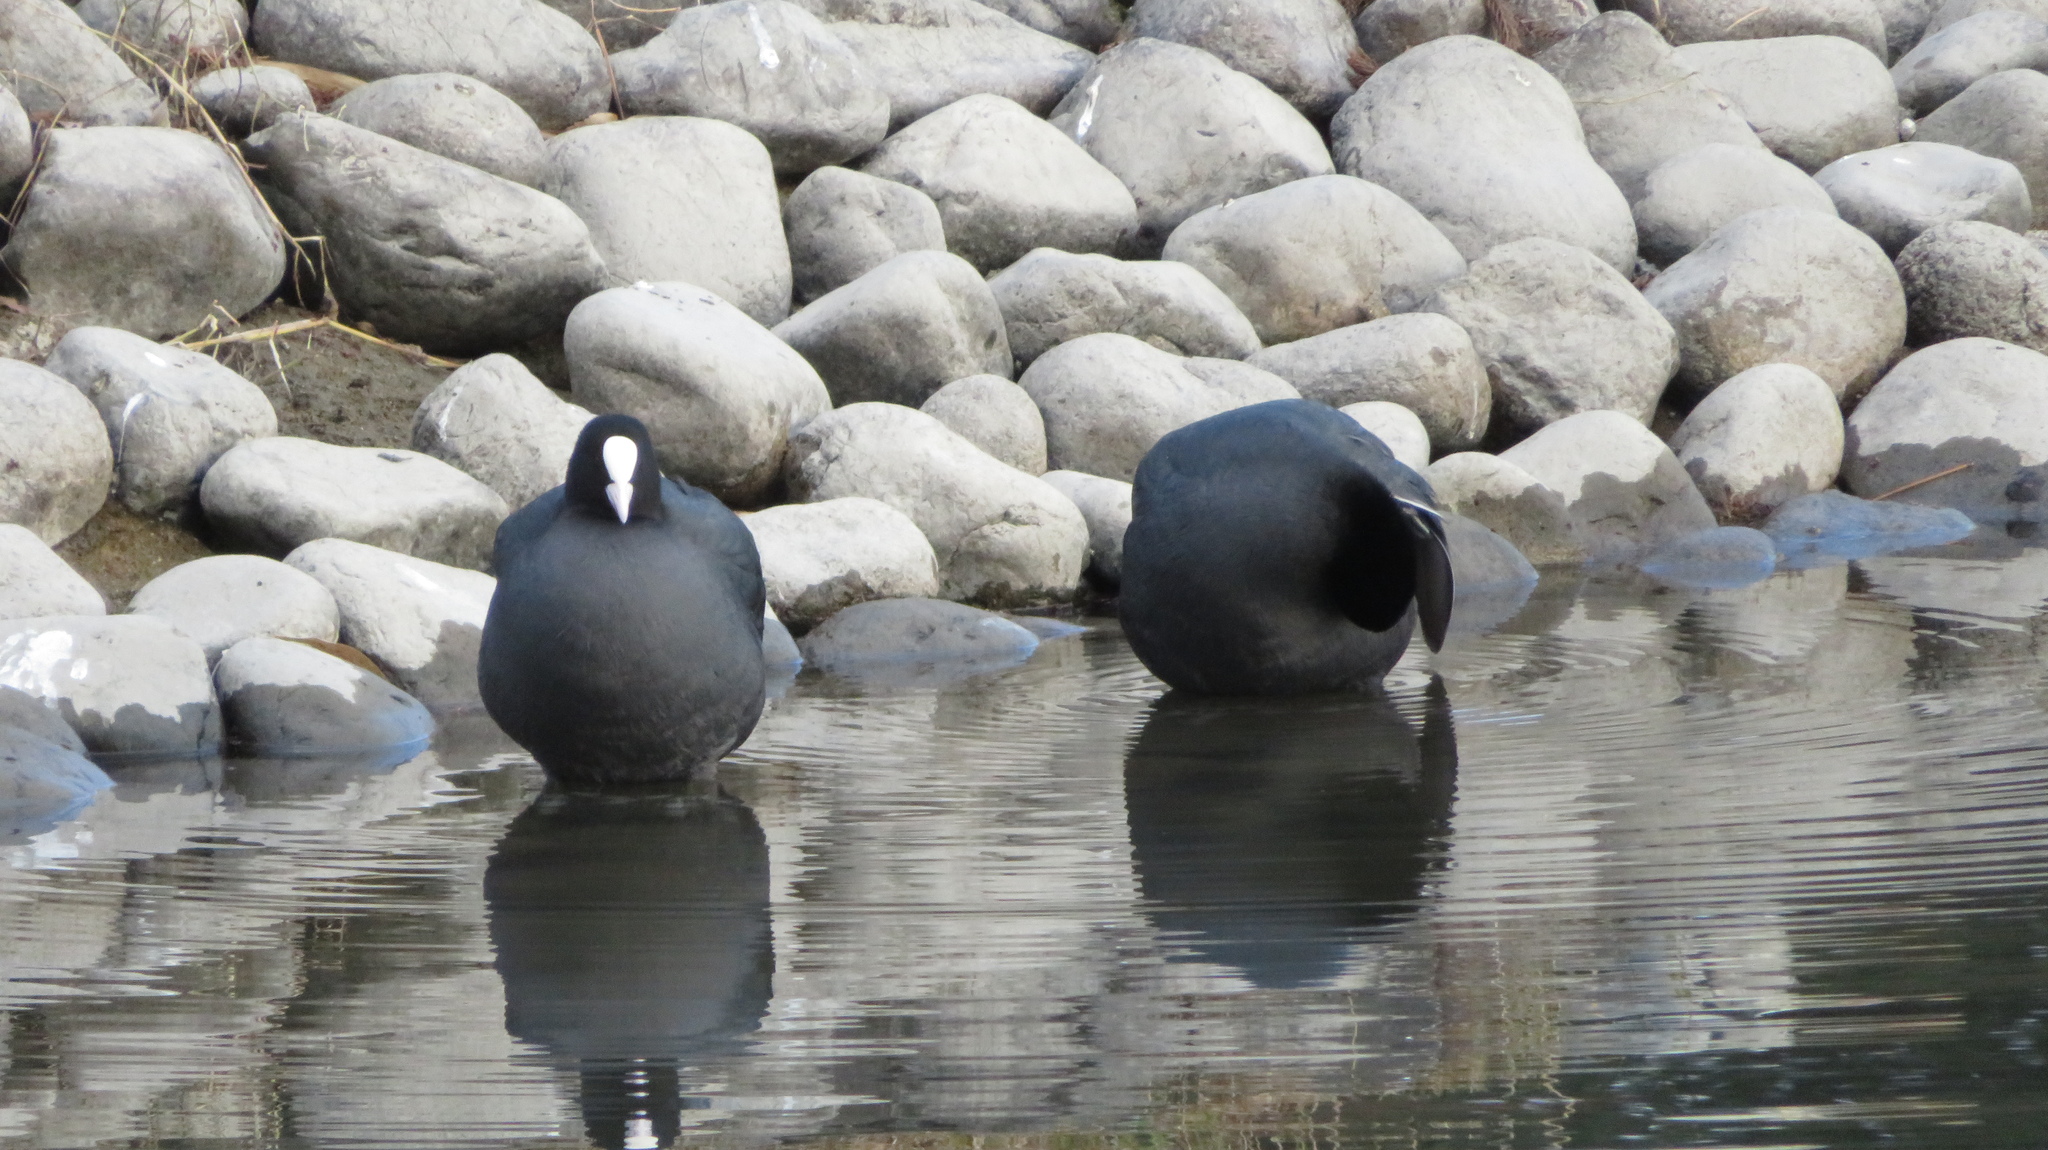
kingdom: Animalia
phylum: Chordata
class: Aves
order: Gruiformes
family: Rallidae
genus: Fulica
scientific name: Fulica atra
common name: Eurasian coot
